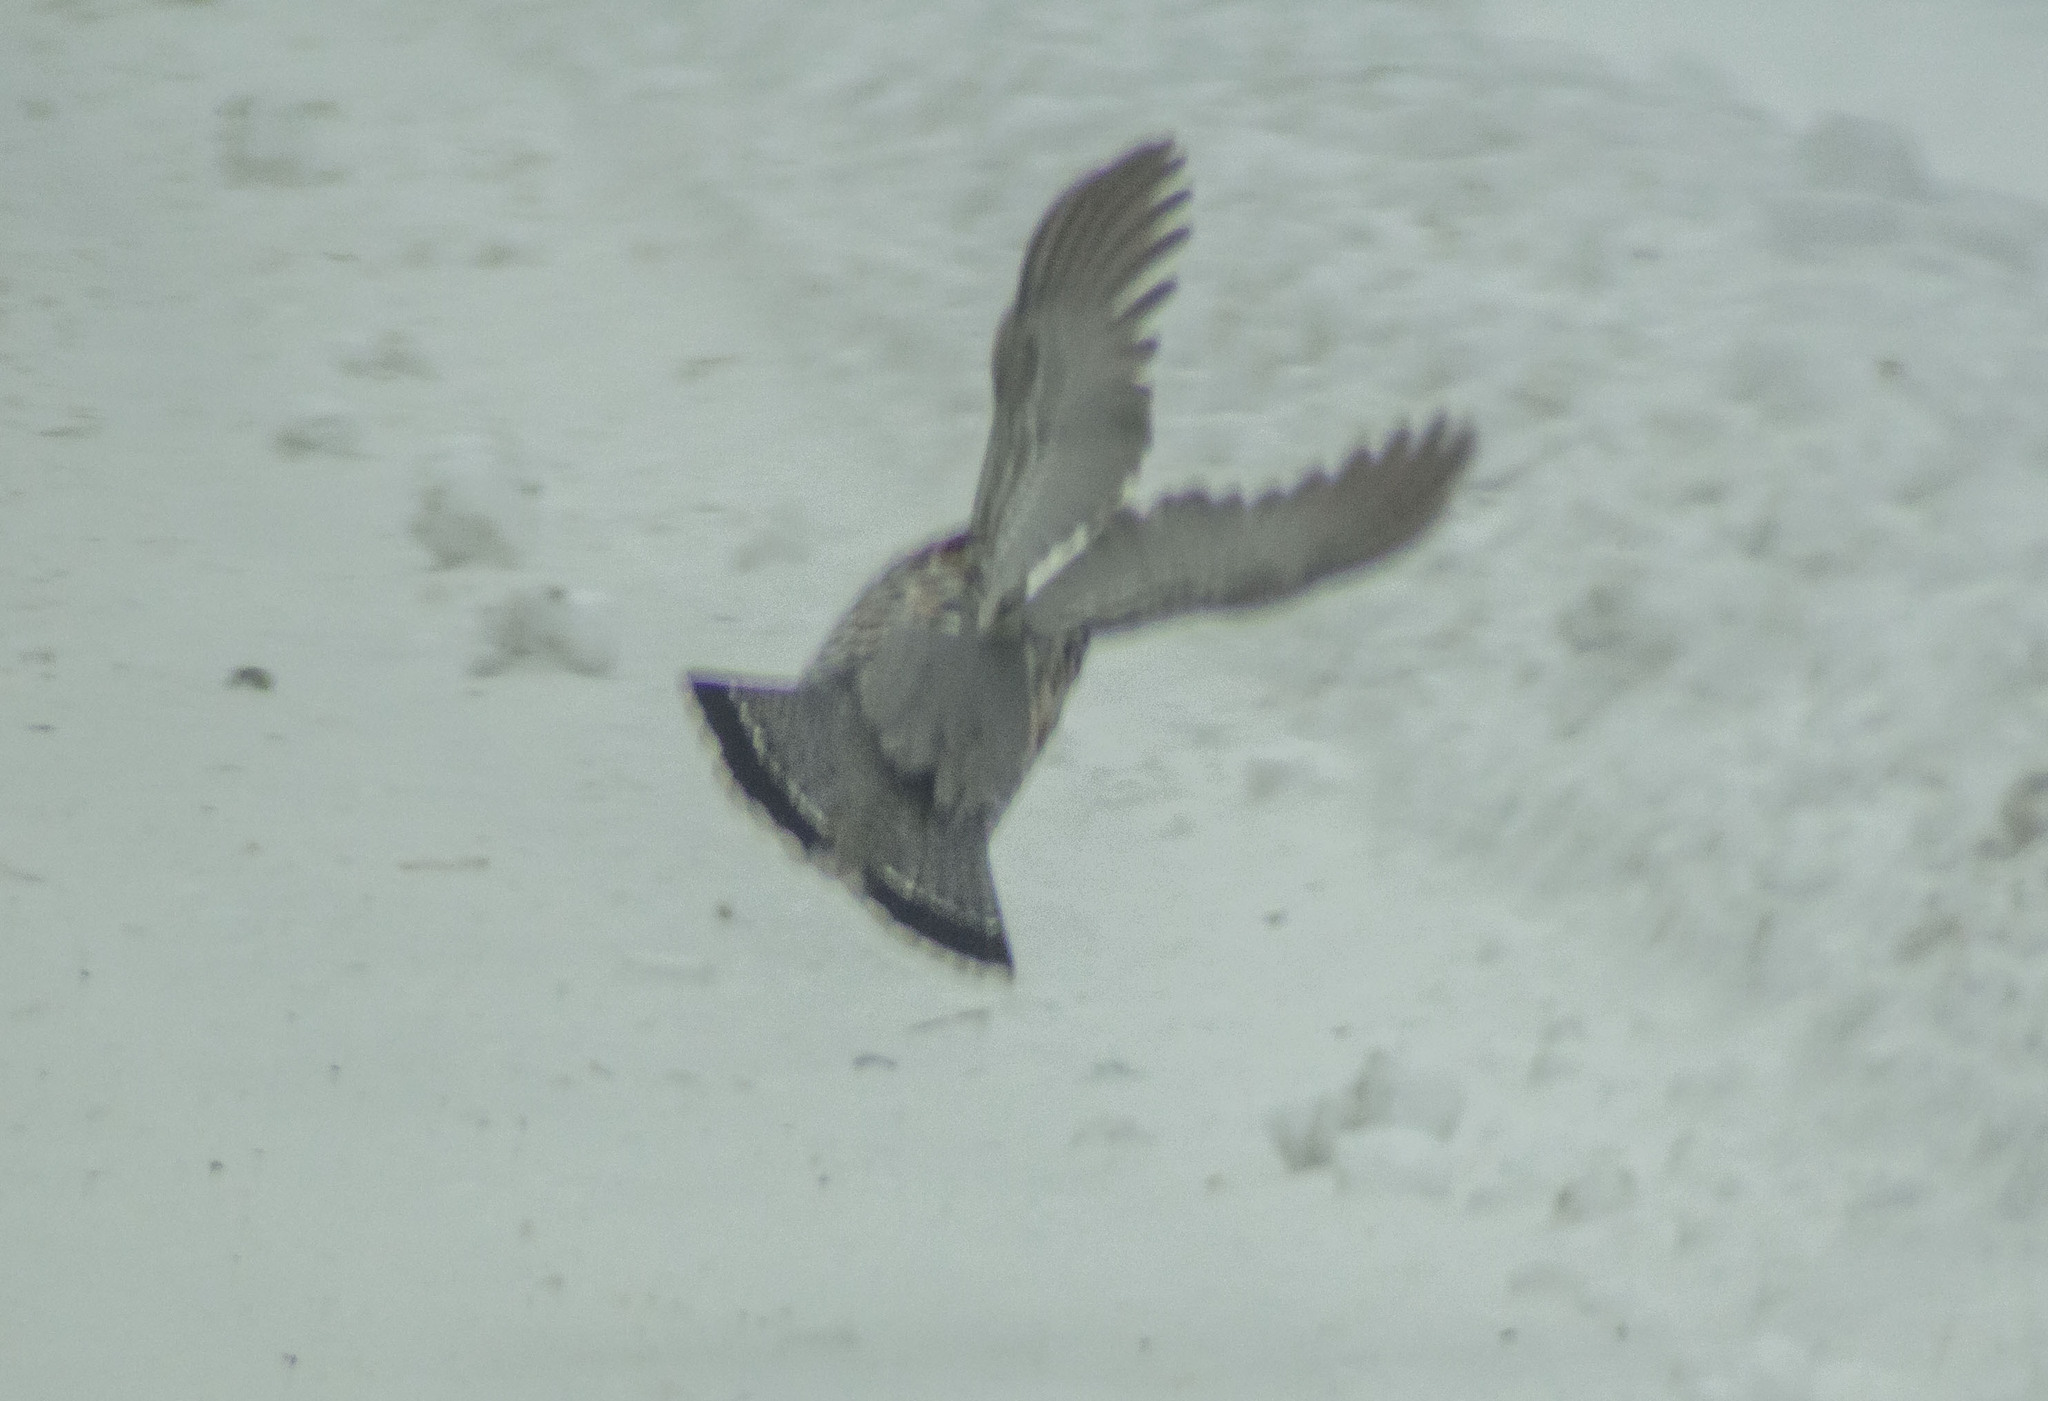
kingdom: Animalia
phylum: Chordata
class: Aves
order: Galliformes
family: Phasianidae
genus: Tetrastes
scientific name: Tetrastes bonasia
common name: Hazel grouse
